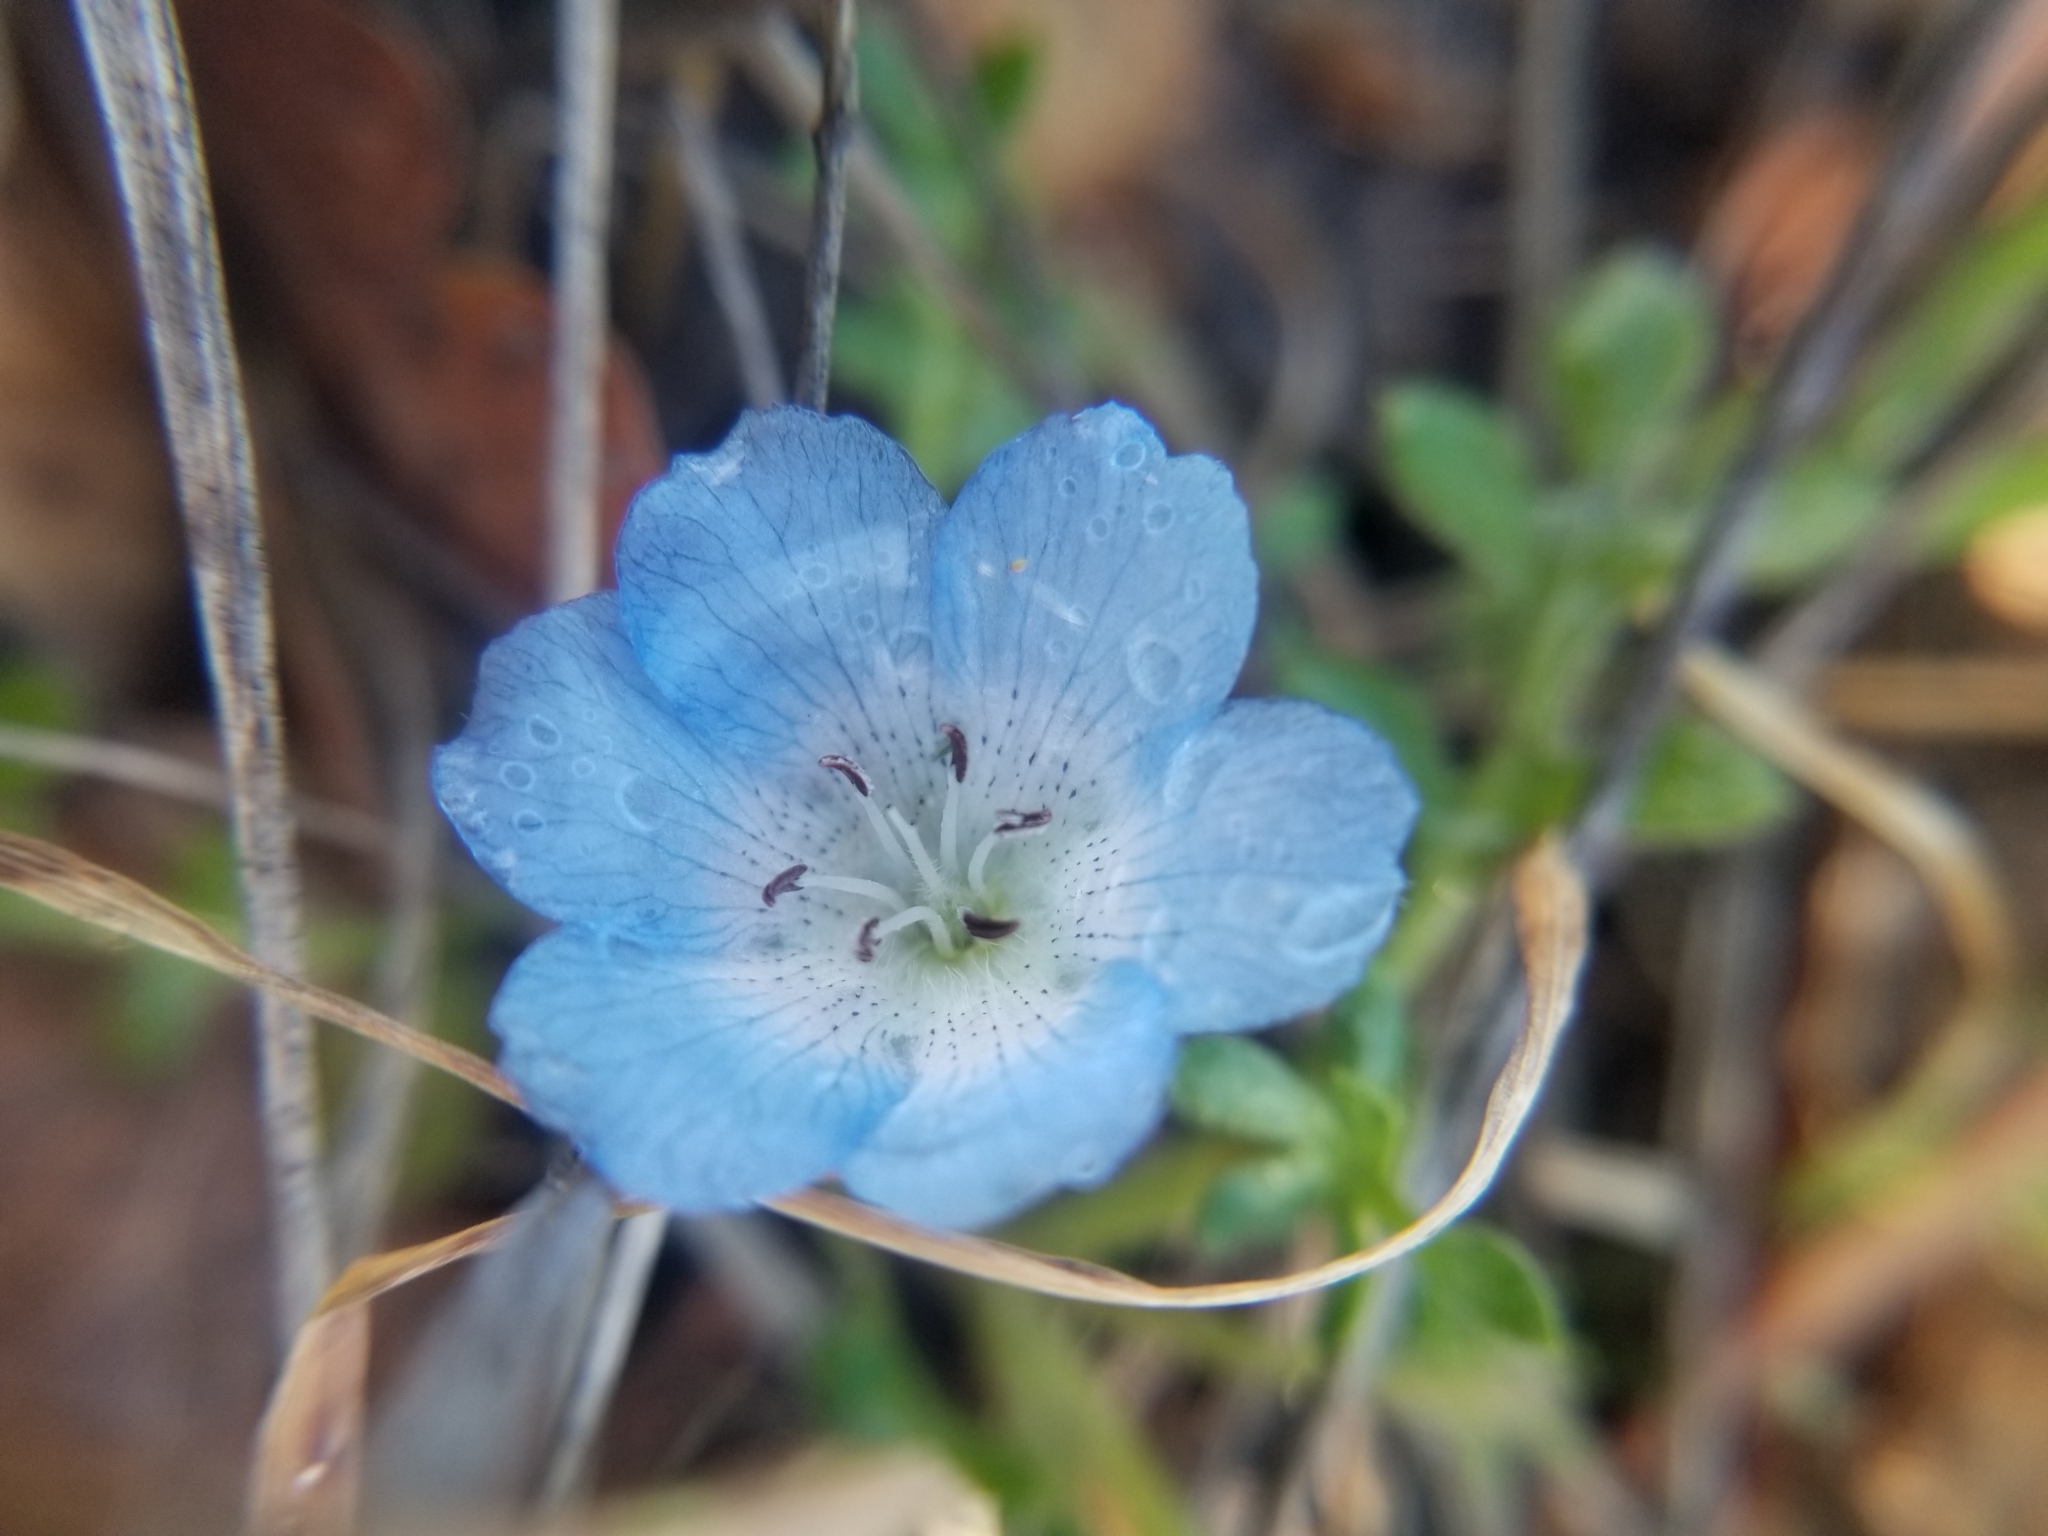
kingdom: Plantae
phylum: Tracheophyta
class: Magnoliopsida
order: Boraginales
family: Hydrophyllaceae
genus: Nemophila
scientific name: Nemophila menziesii
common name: Baby's-blue-eyes
